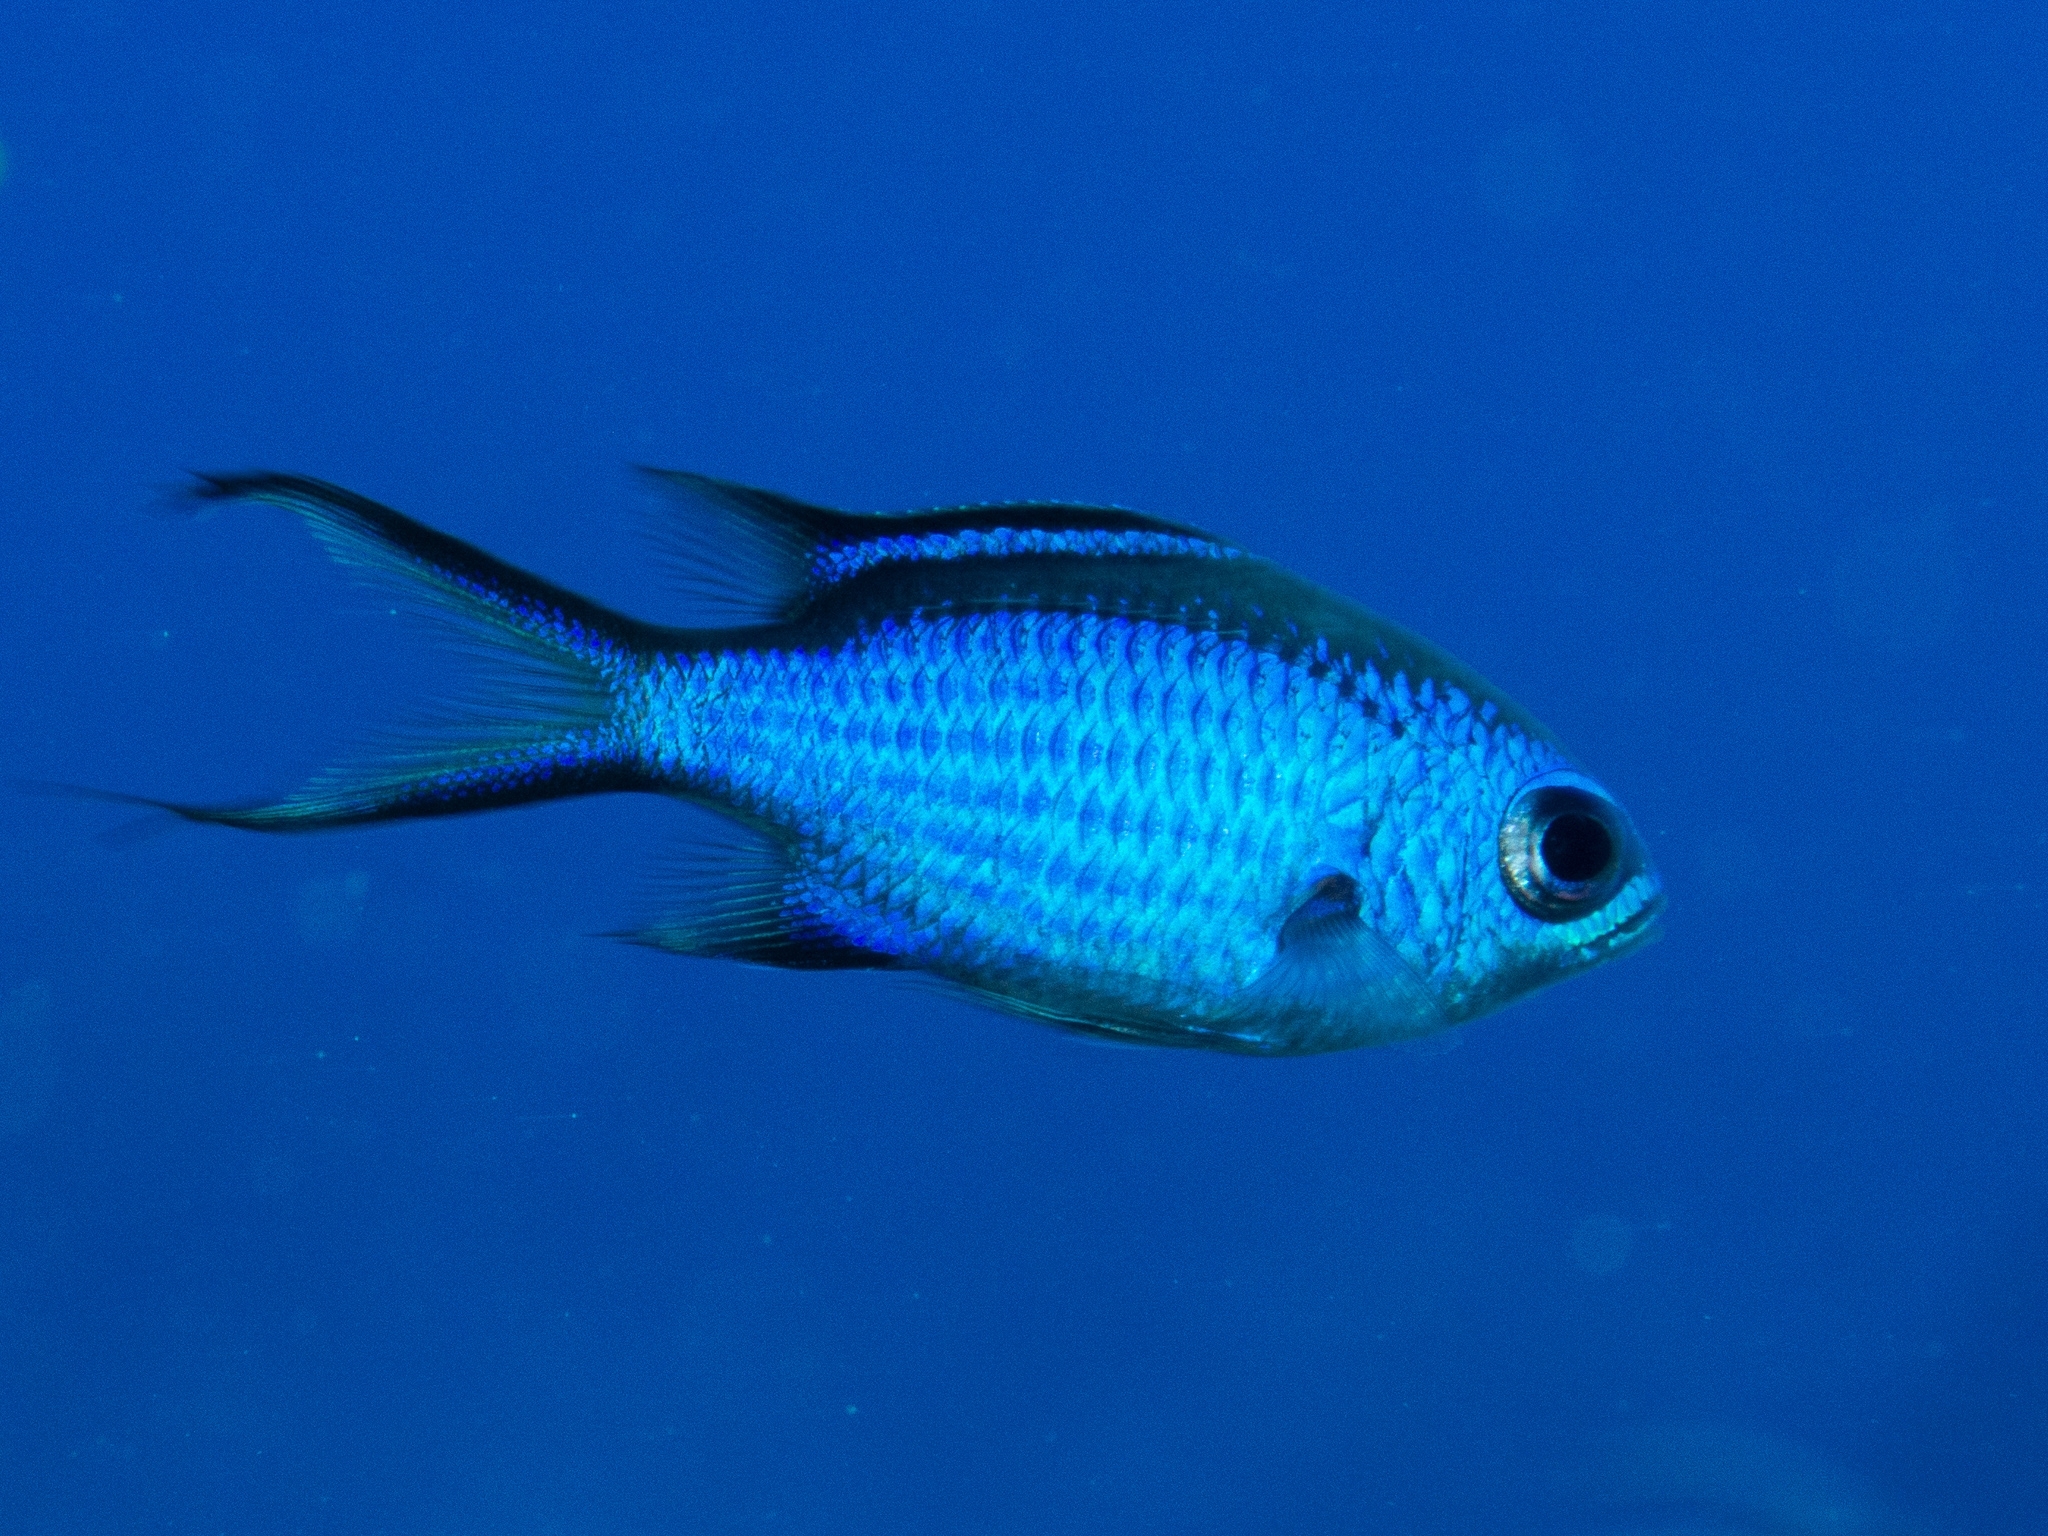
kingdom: Animalia
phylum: Chordata
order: Perciformes
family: Pomacentridae
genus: Chromis
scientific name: Chromis cyanea
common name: Blue chromis
